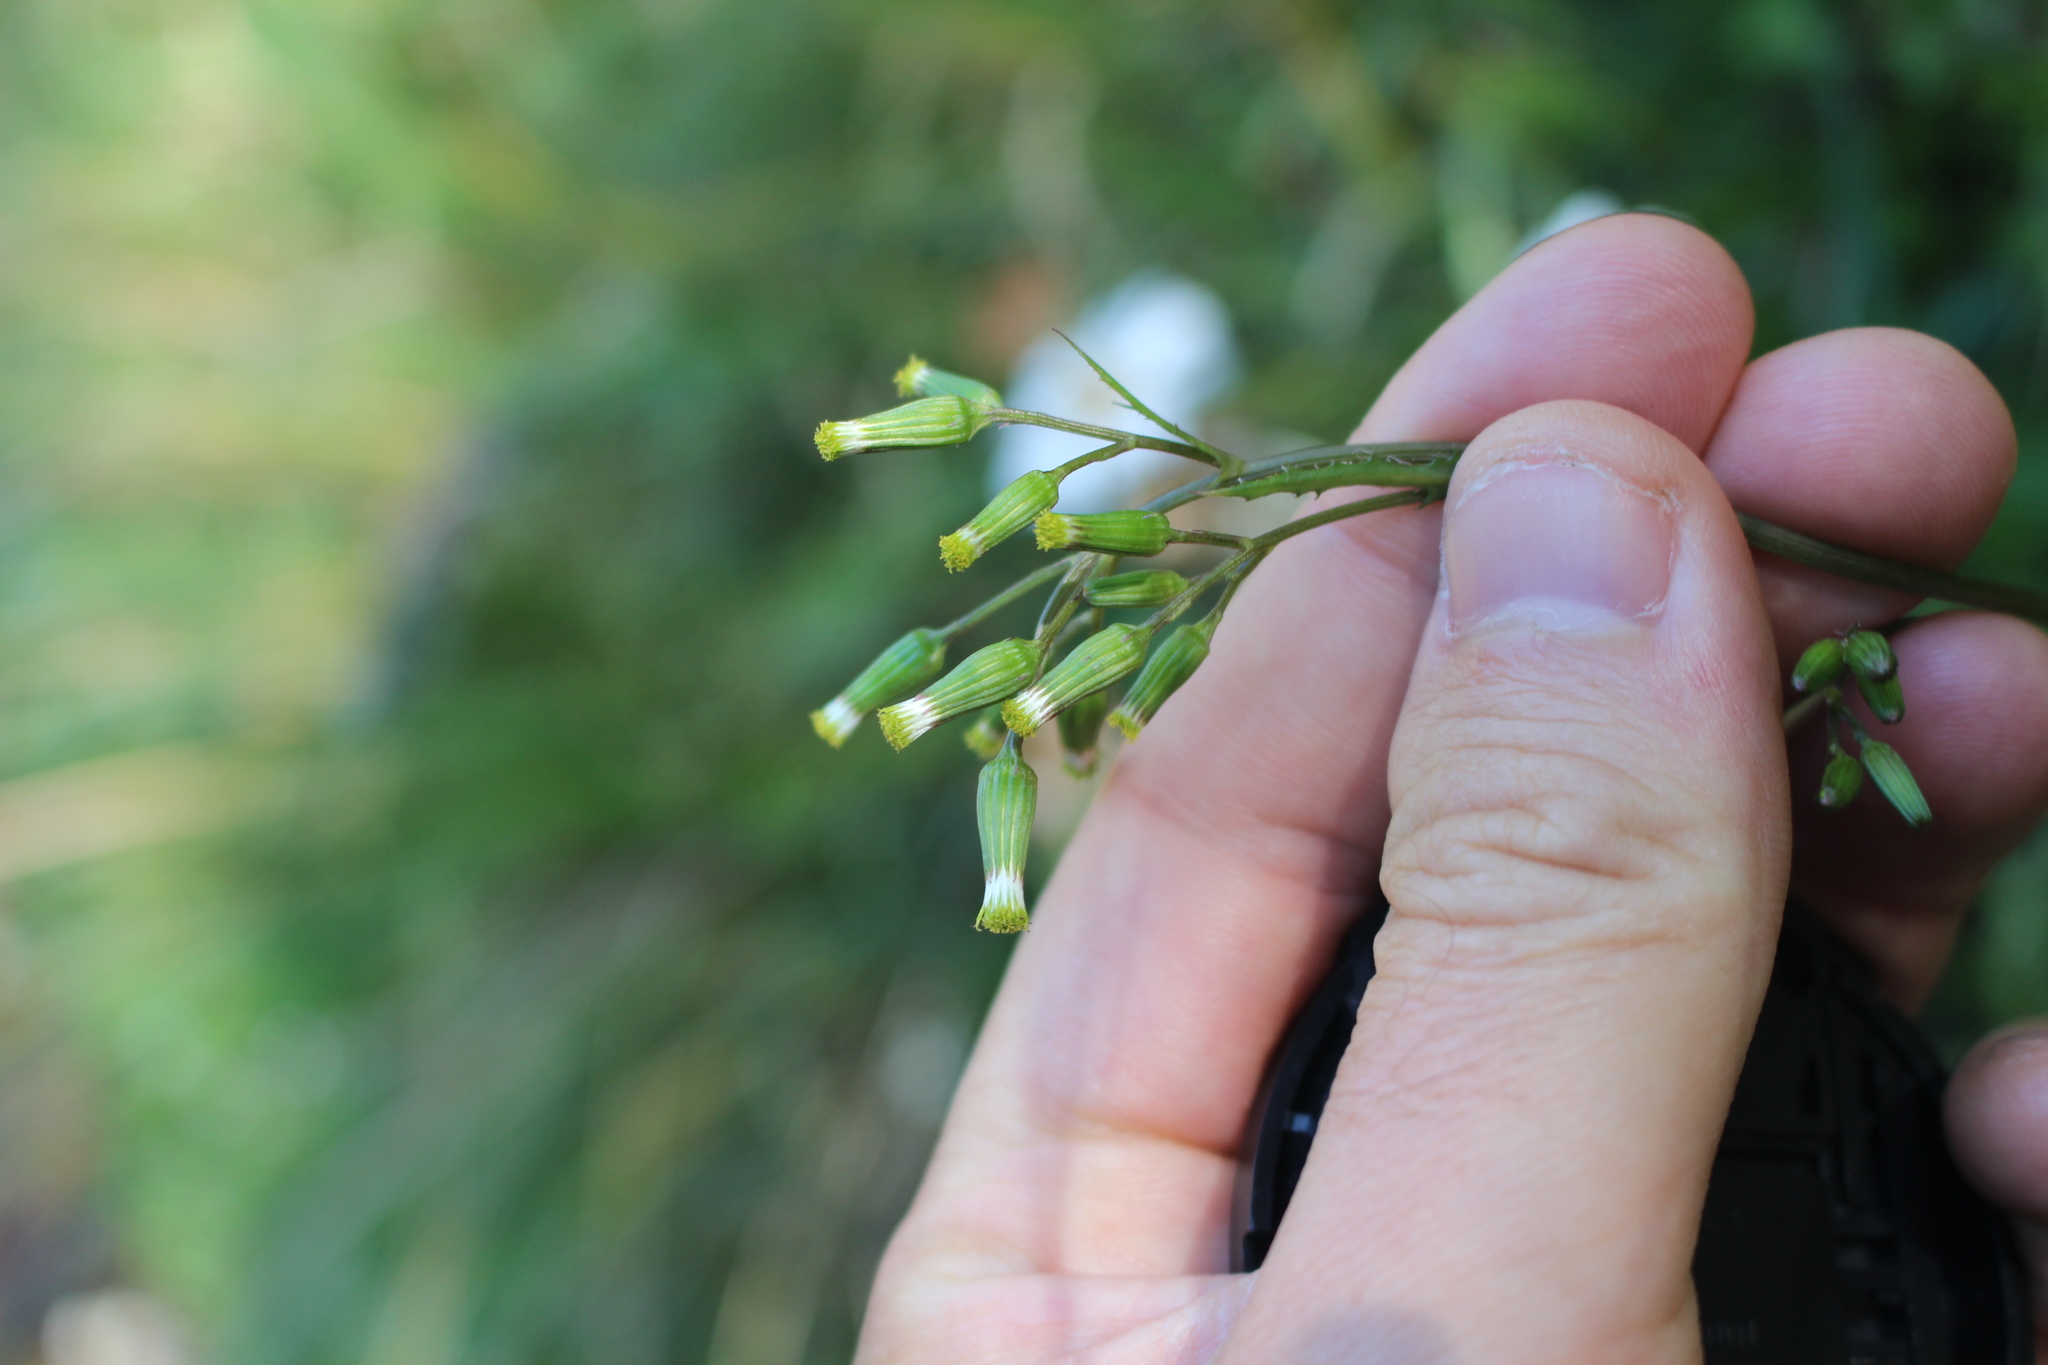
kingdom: Plantae
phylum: Tracheophyta
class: Magnoliopsida
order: Asterales
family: Asteraceae
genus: Senecio
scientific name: Senecio wairauensis
